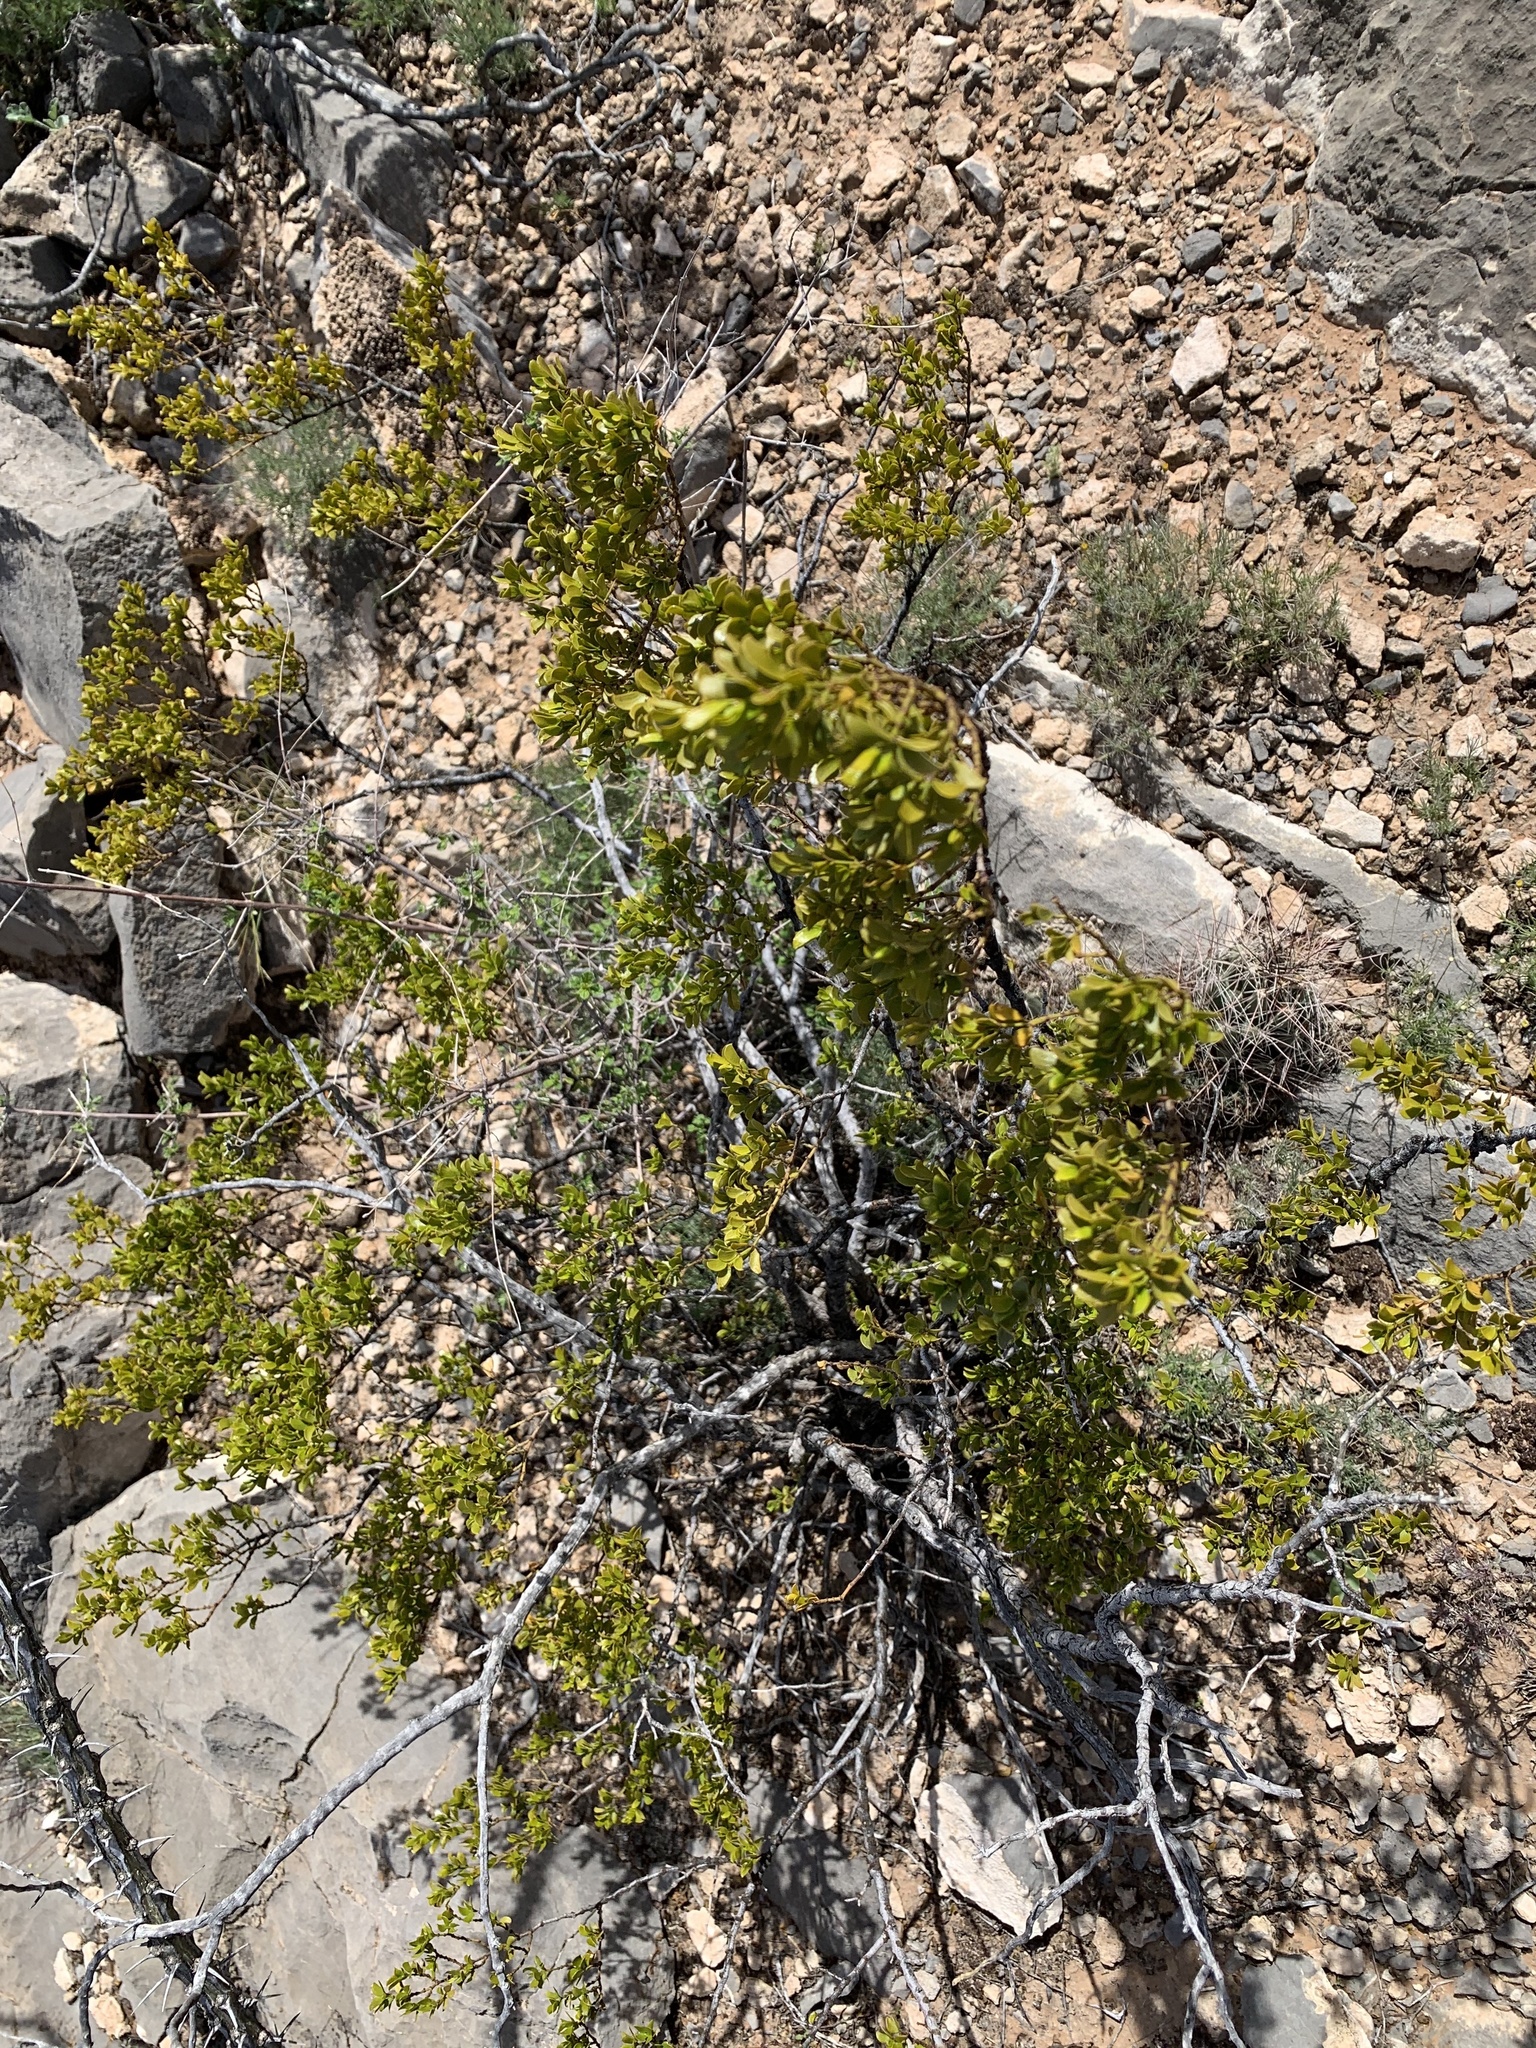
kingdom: Plantae
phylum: Tracheophyta
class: Magnoliopsida
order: Zygophyllales
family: Zygophyllaceae
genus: Larrea
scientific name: Larrea tridentata
